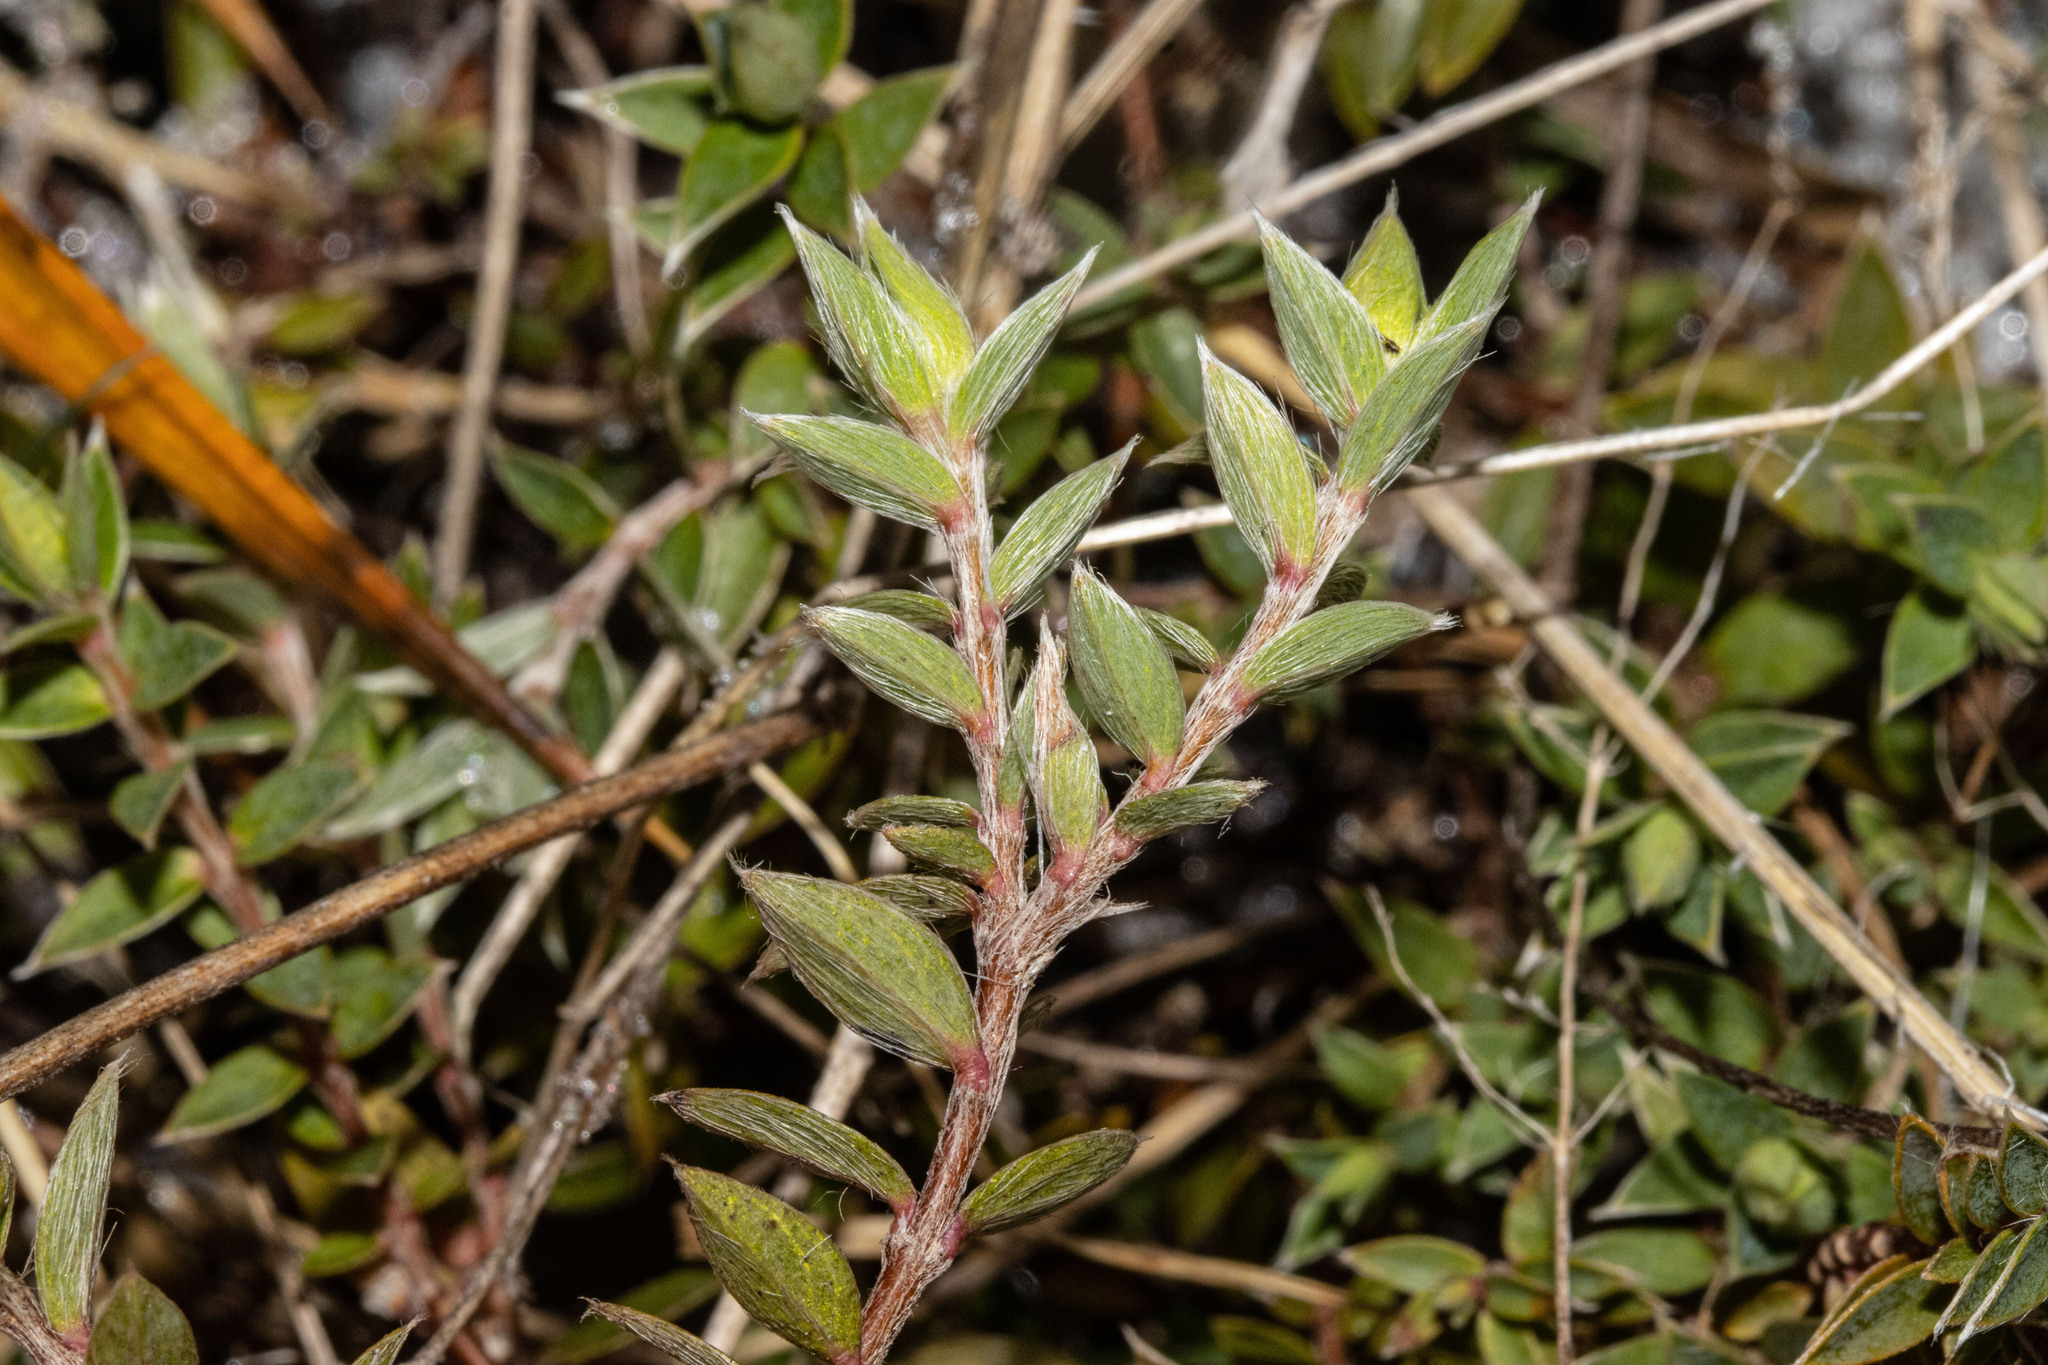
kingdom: Plantae
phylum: Tracheophyta
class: Magnoliopsida
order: Malvales
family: Thymelaeaceae
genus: Pimelea
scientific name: Pimelea pseudolyallii
